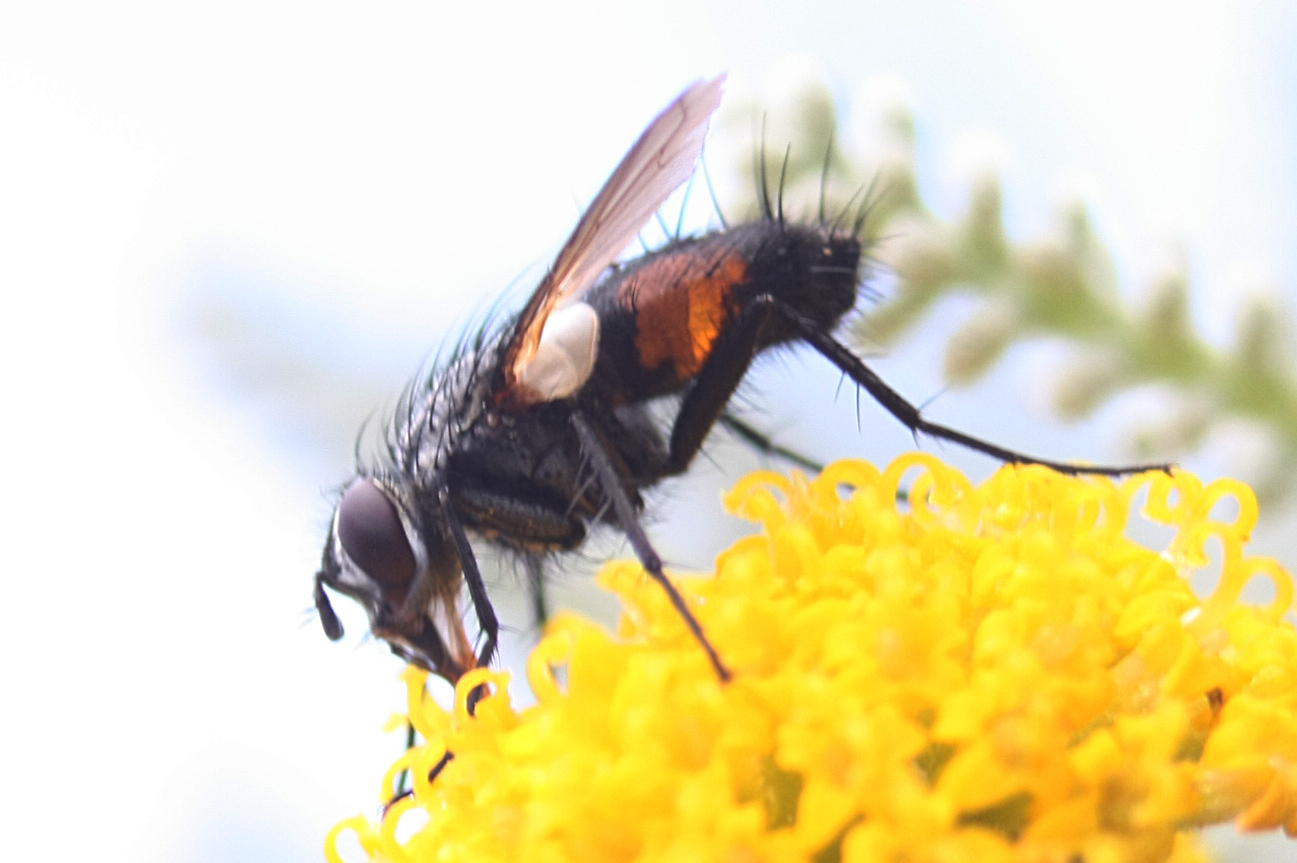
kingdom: Animalia
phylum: Arthropoda
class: Insecta
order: Diptera
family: Tachinidae
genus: Eriothrix
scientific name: Eriothrix rufomaculatus
